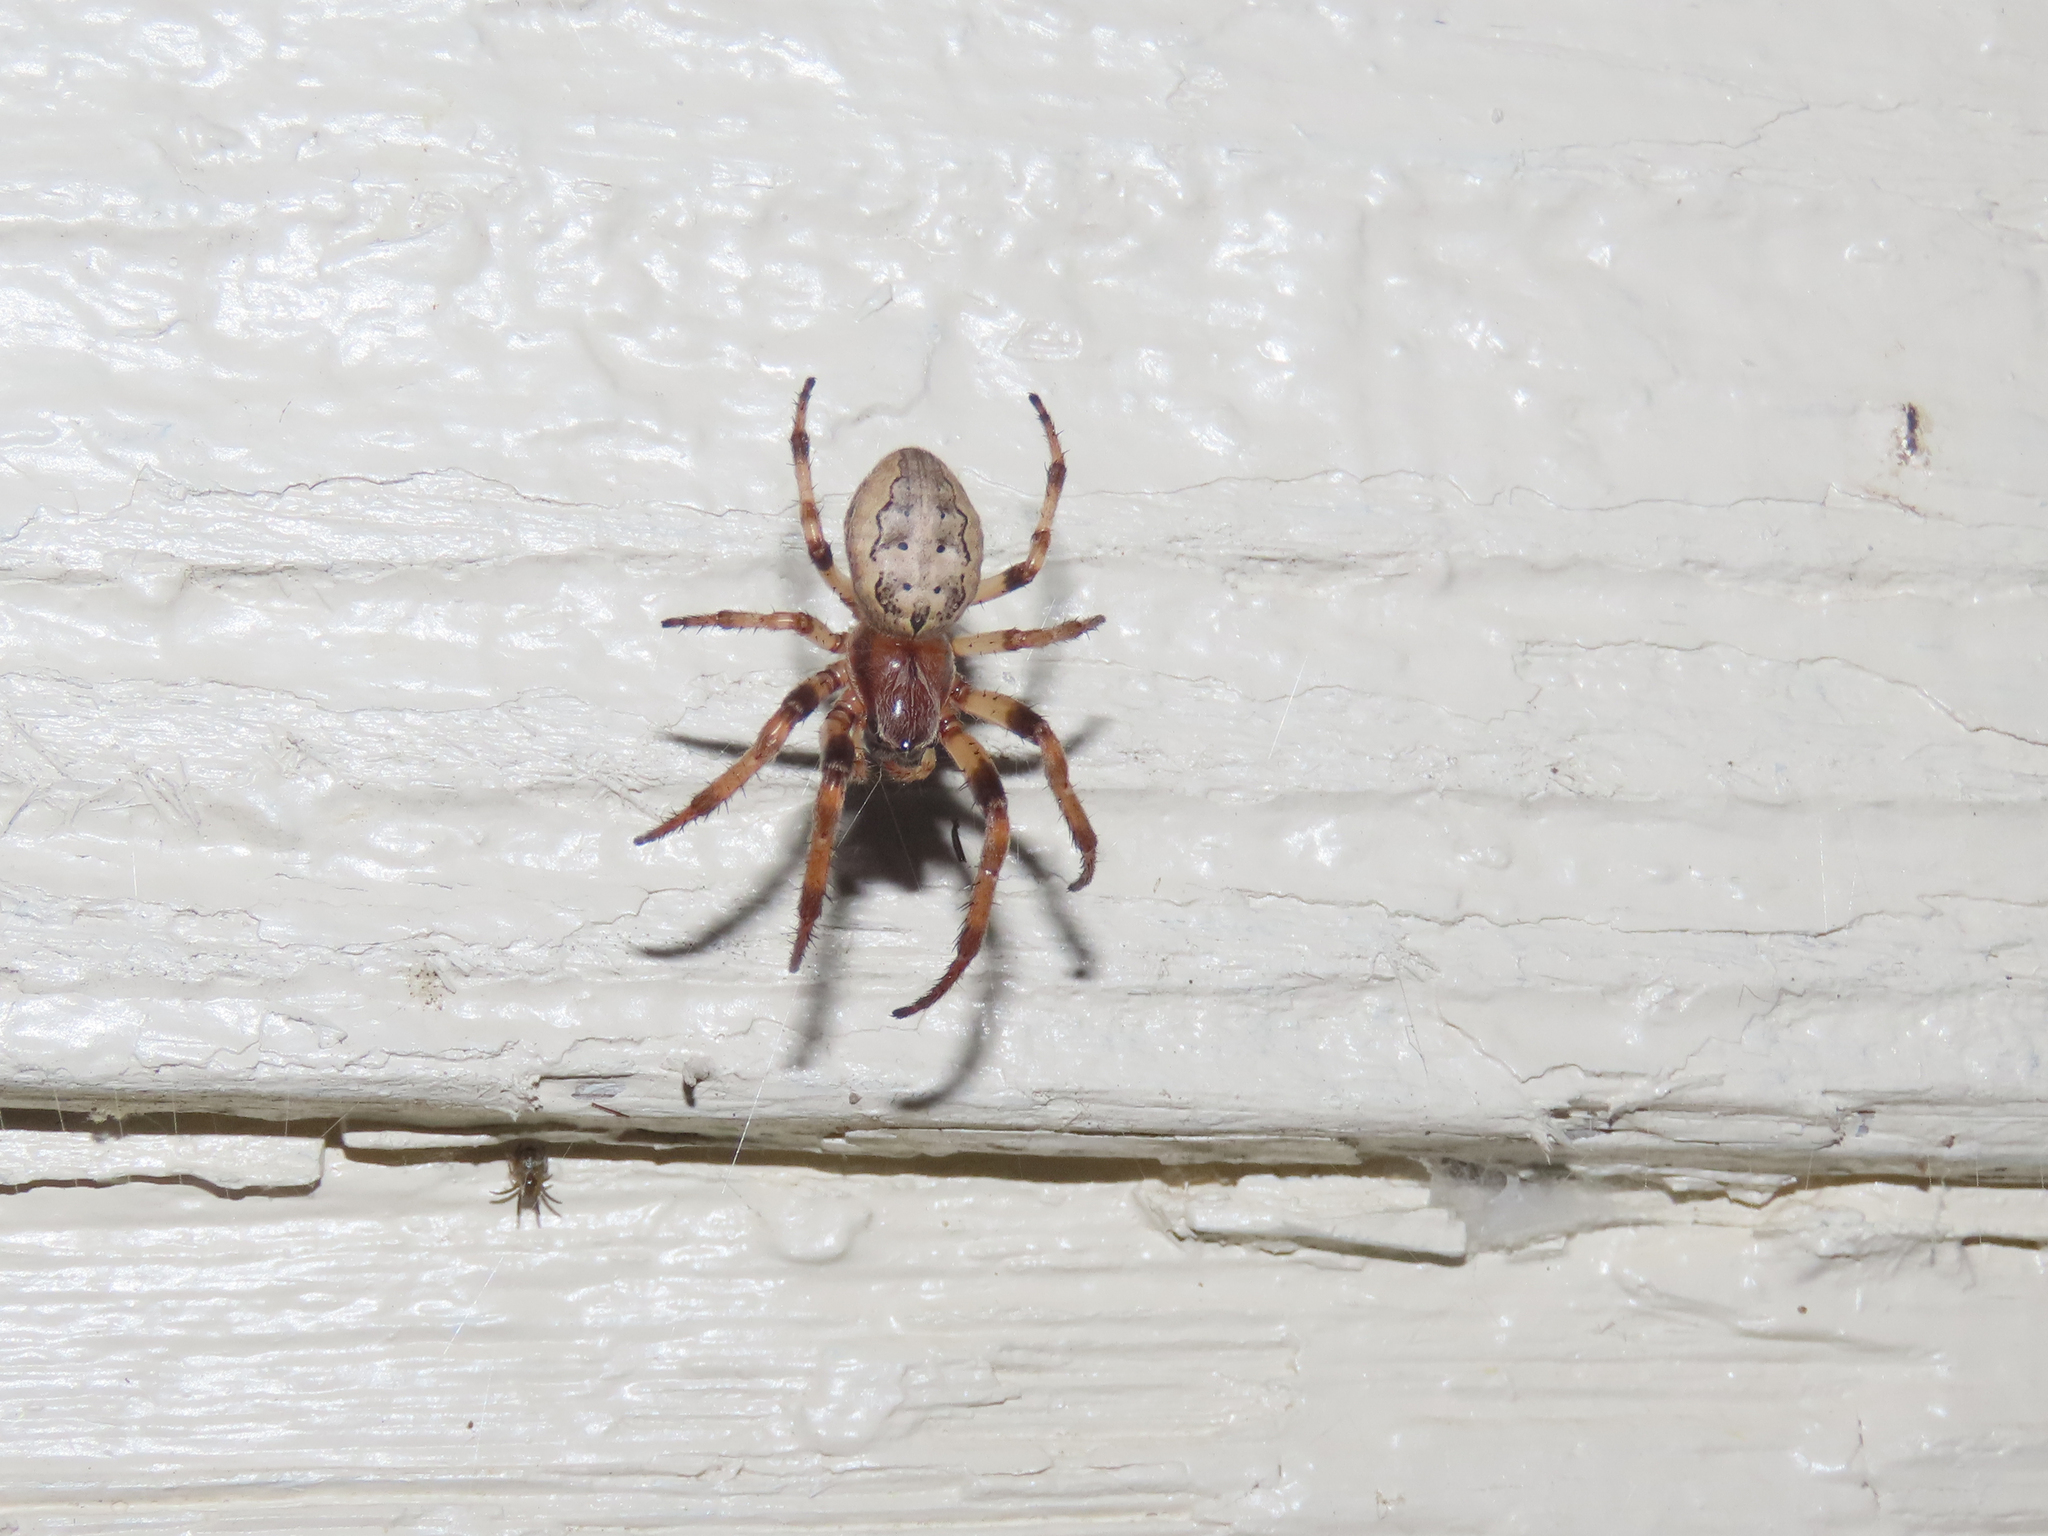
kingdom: Animalia
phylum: Arthropoda
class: Arachnida
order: Araneae
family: Araneidae
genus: Larinioides
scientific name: Larinioides cornutus
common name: Furrow orbweaver
